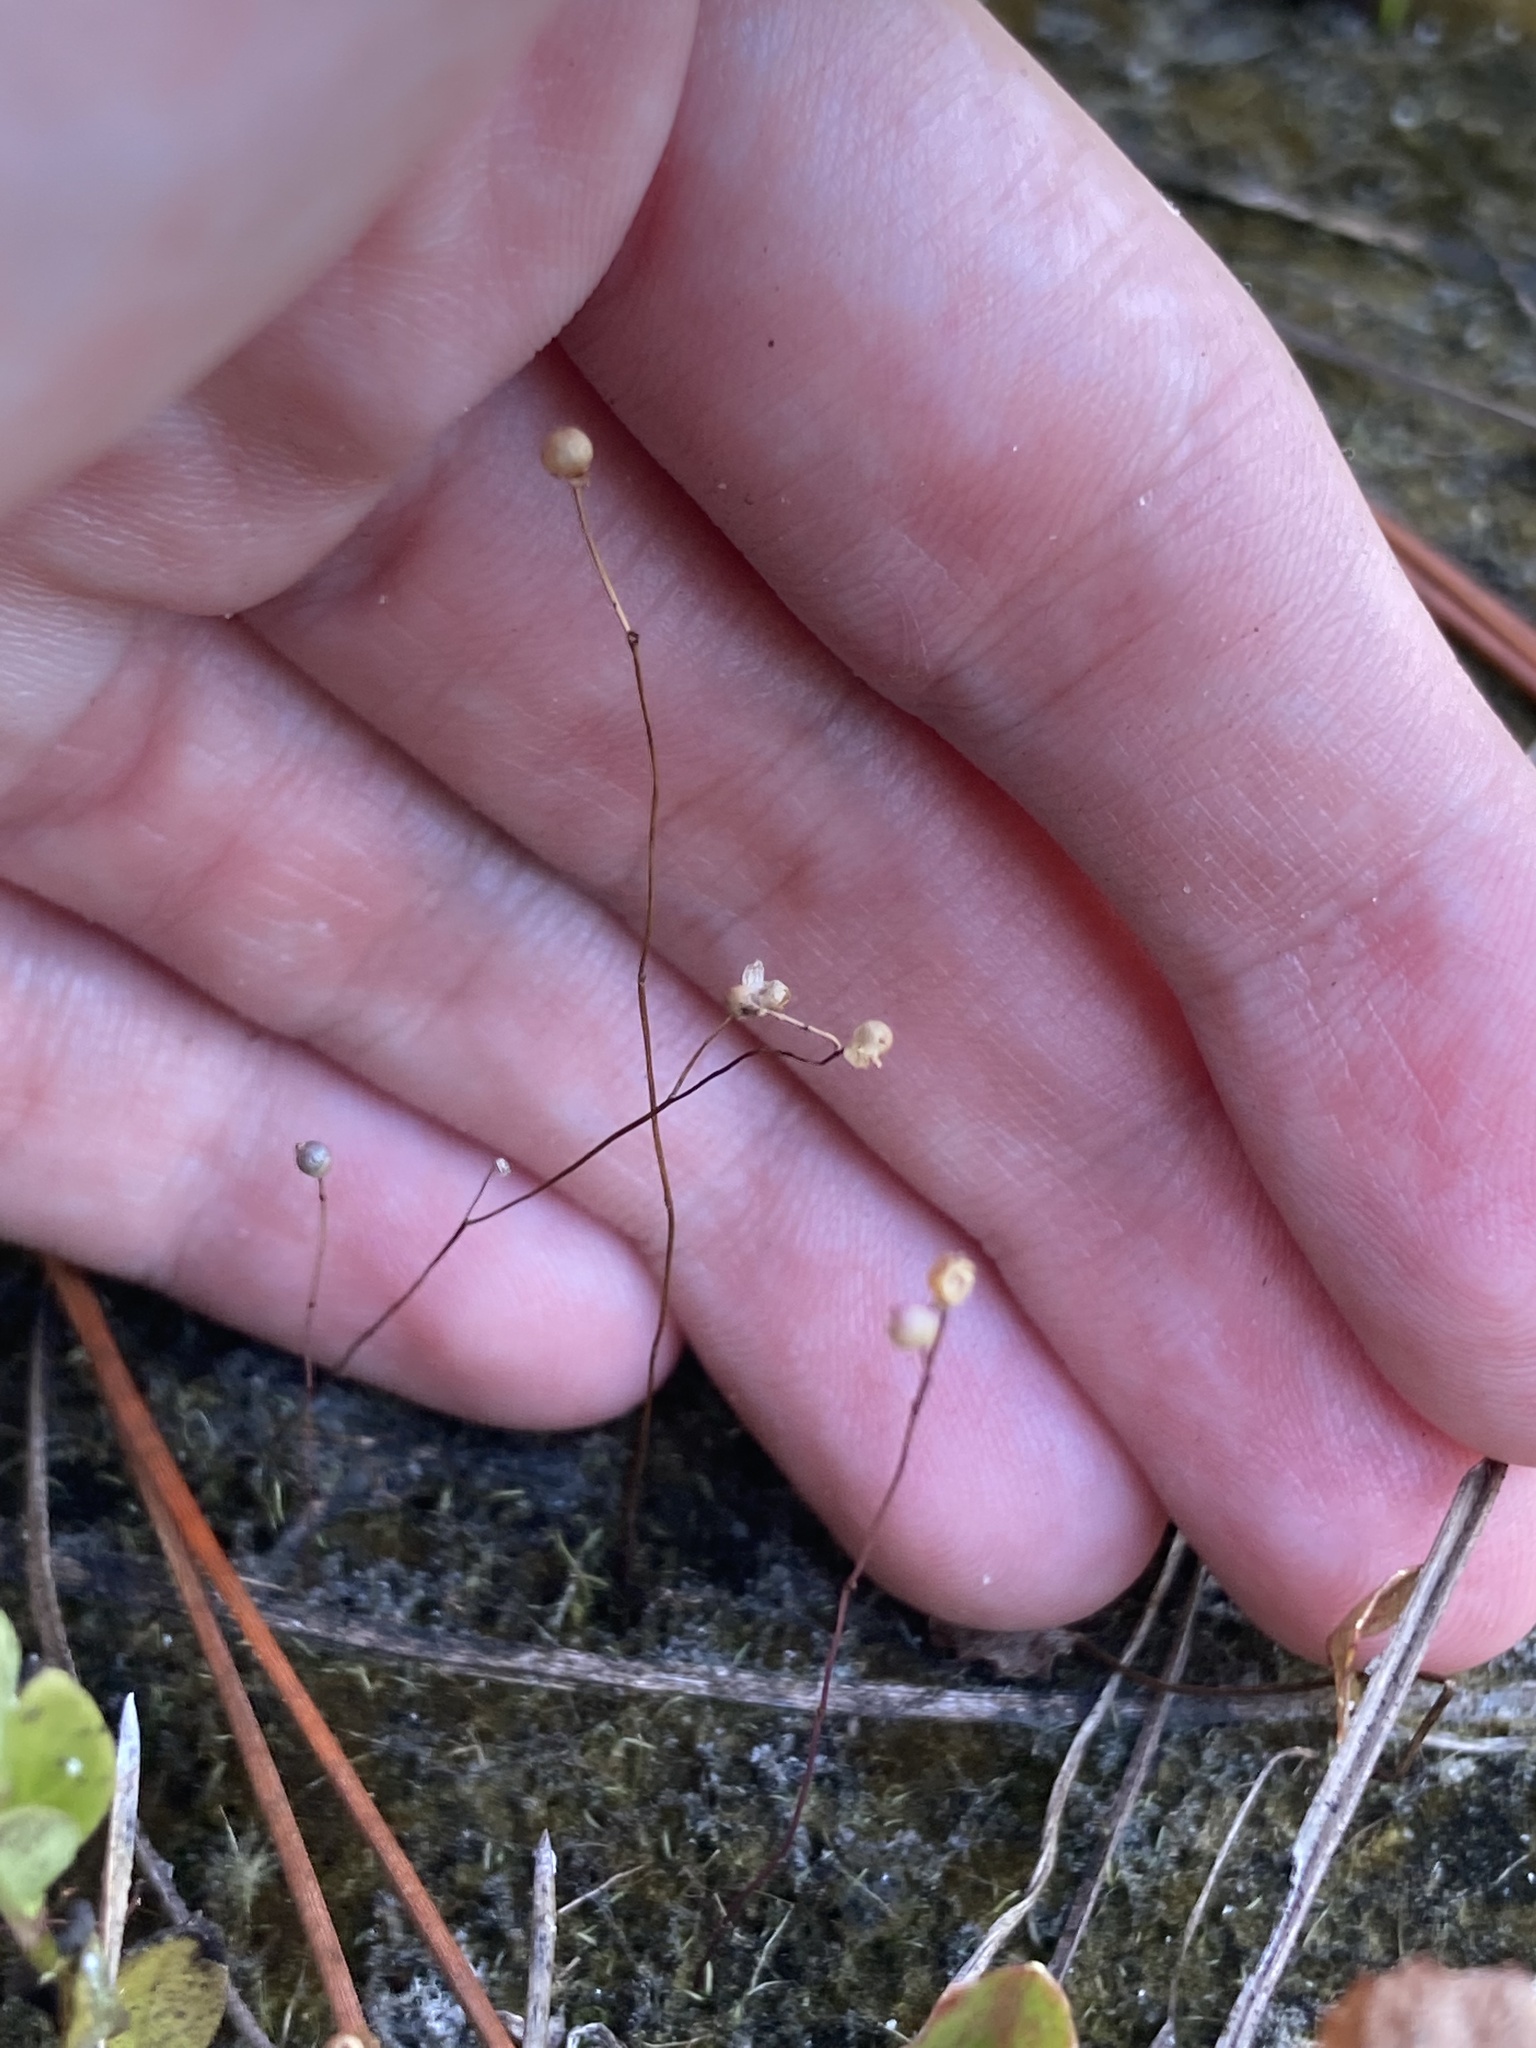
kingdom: Plantae
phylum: Tracheophyta
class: Magnoliopsida
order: Lamiales
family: Lentibulariaceae
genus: Utricularia
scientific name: Utricularia subulata
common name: Tiny bladderwort
